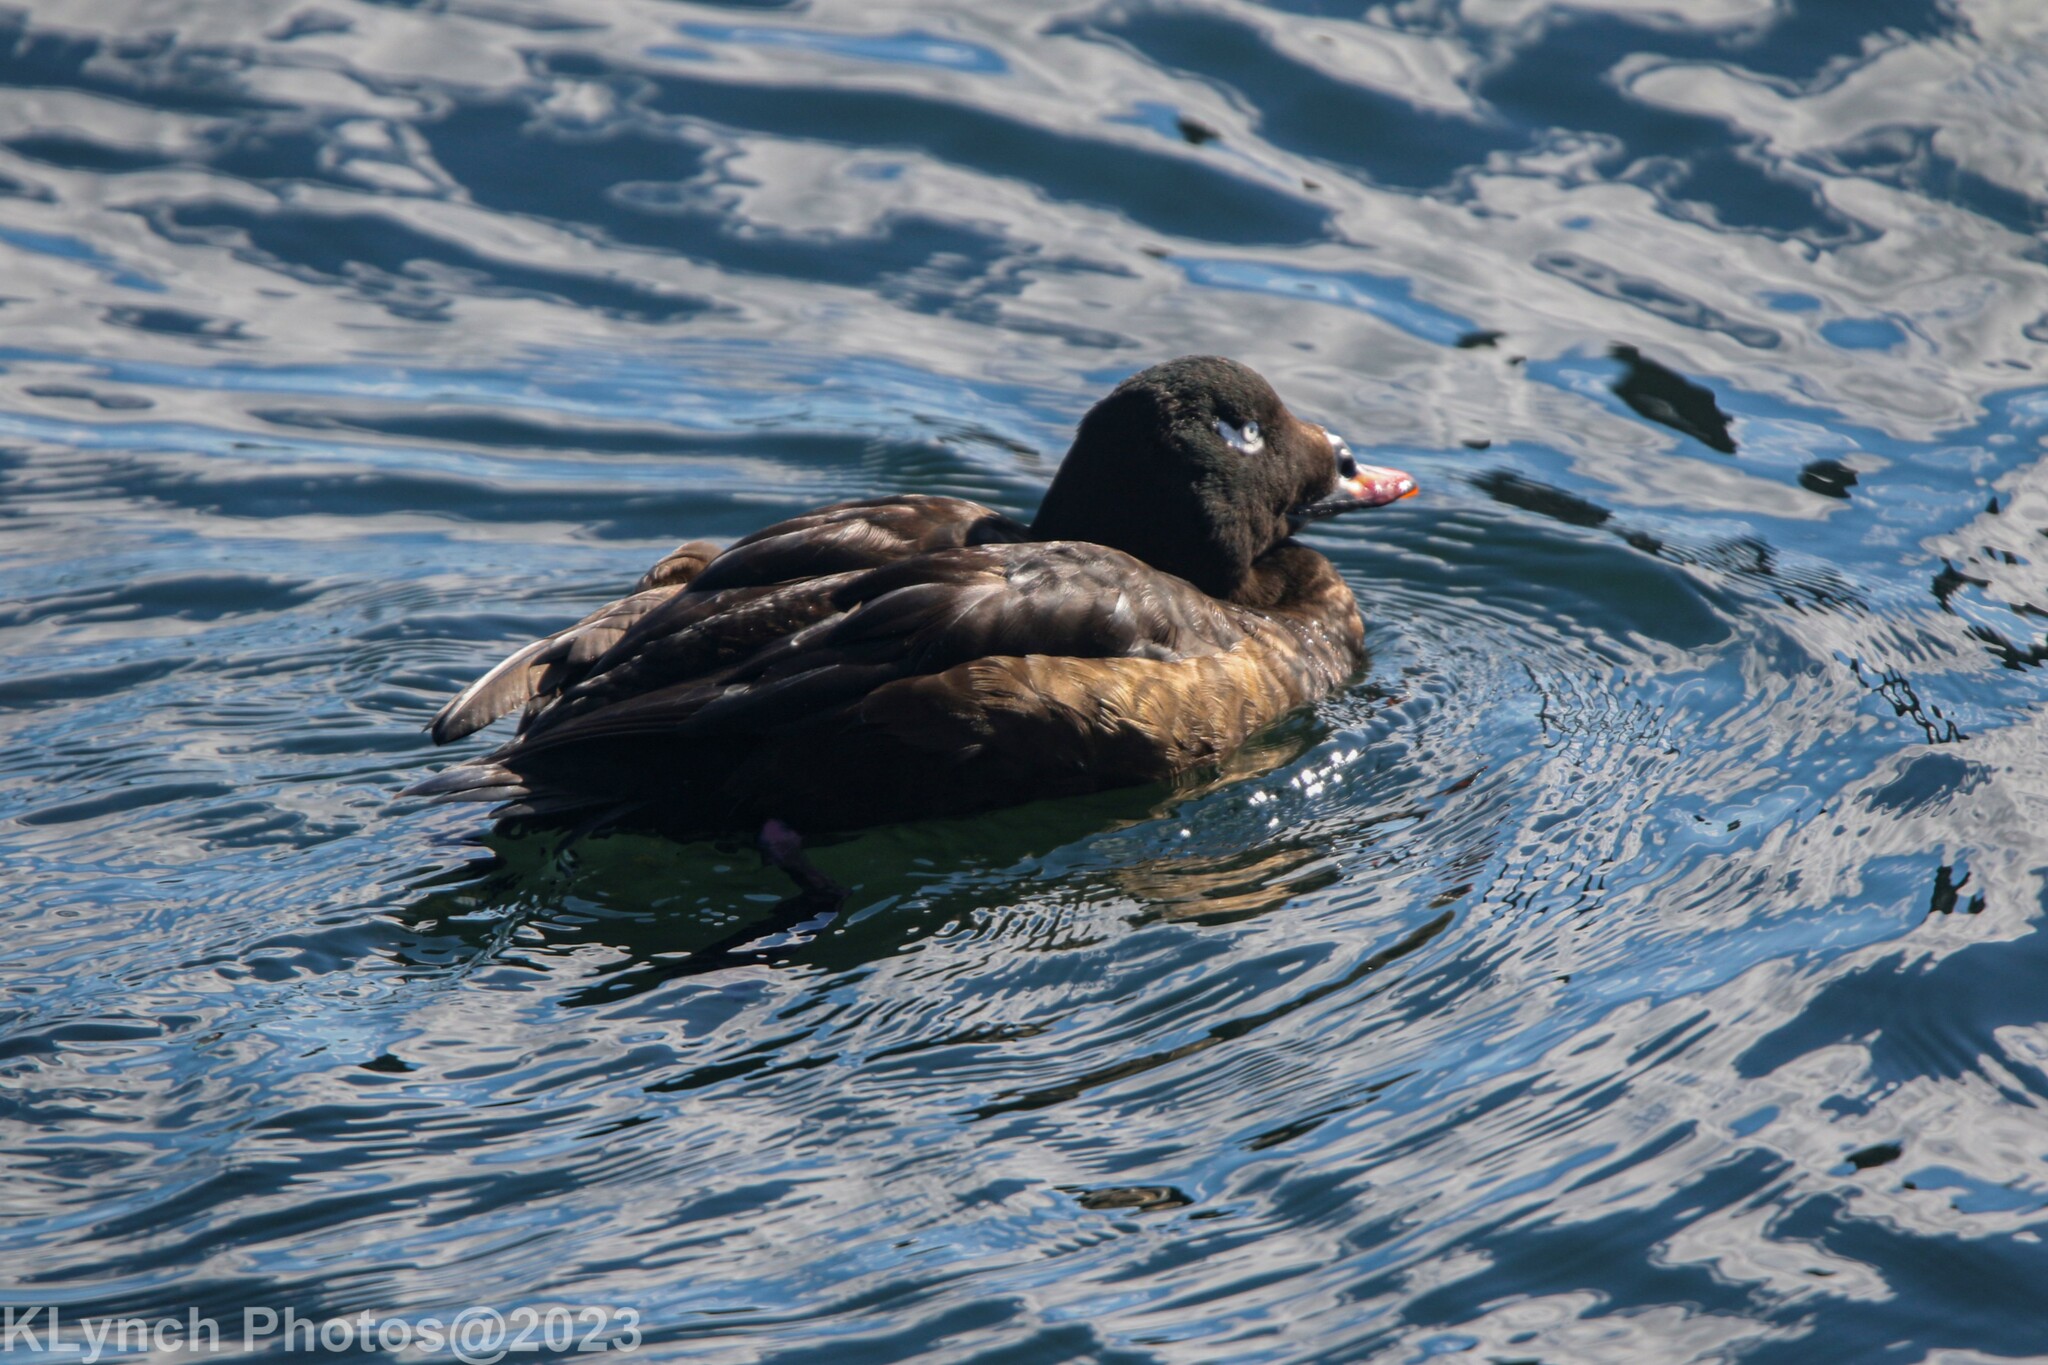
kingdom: Animalia
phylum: Chordata
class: Aves
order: Anseriformes
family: Anatidae
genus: Melanitta
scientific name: Melanitta deglandi
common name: White-winged scoter
